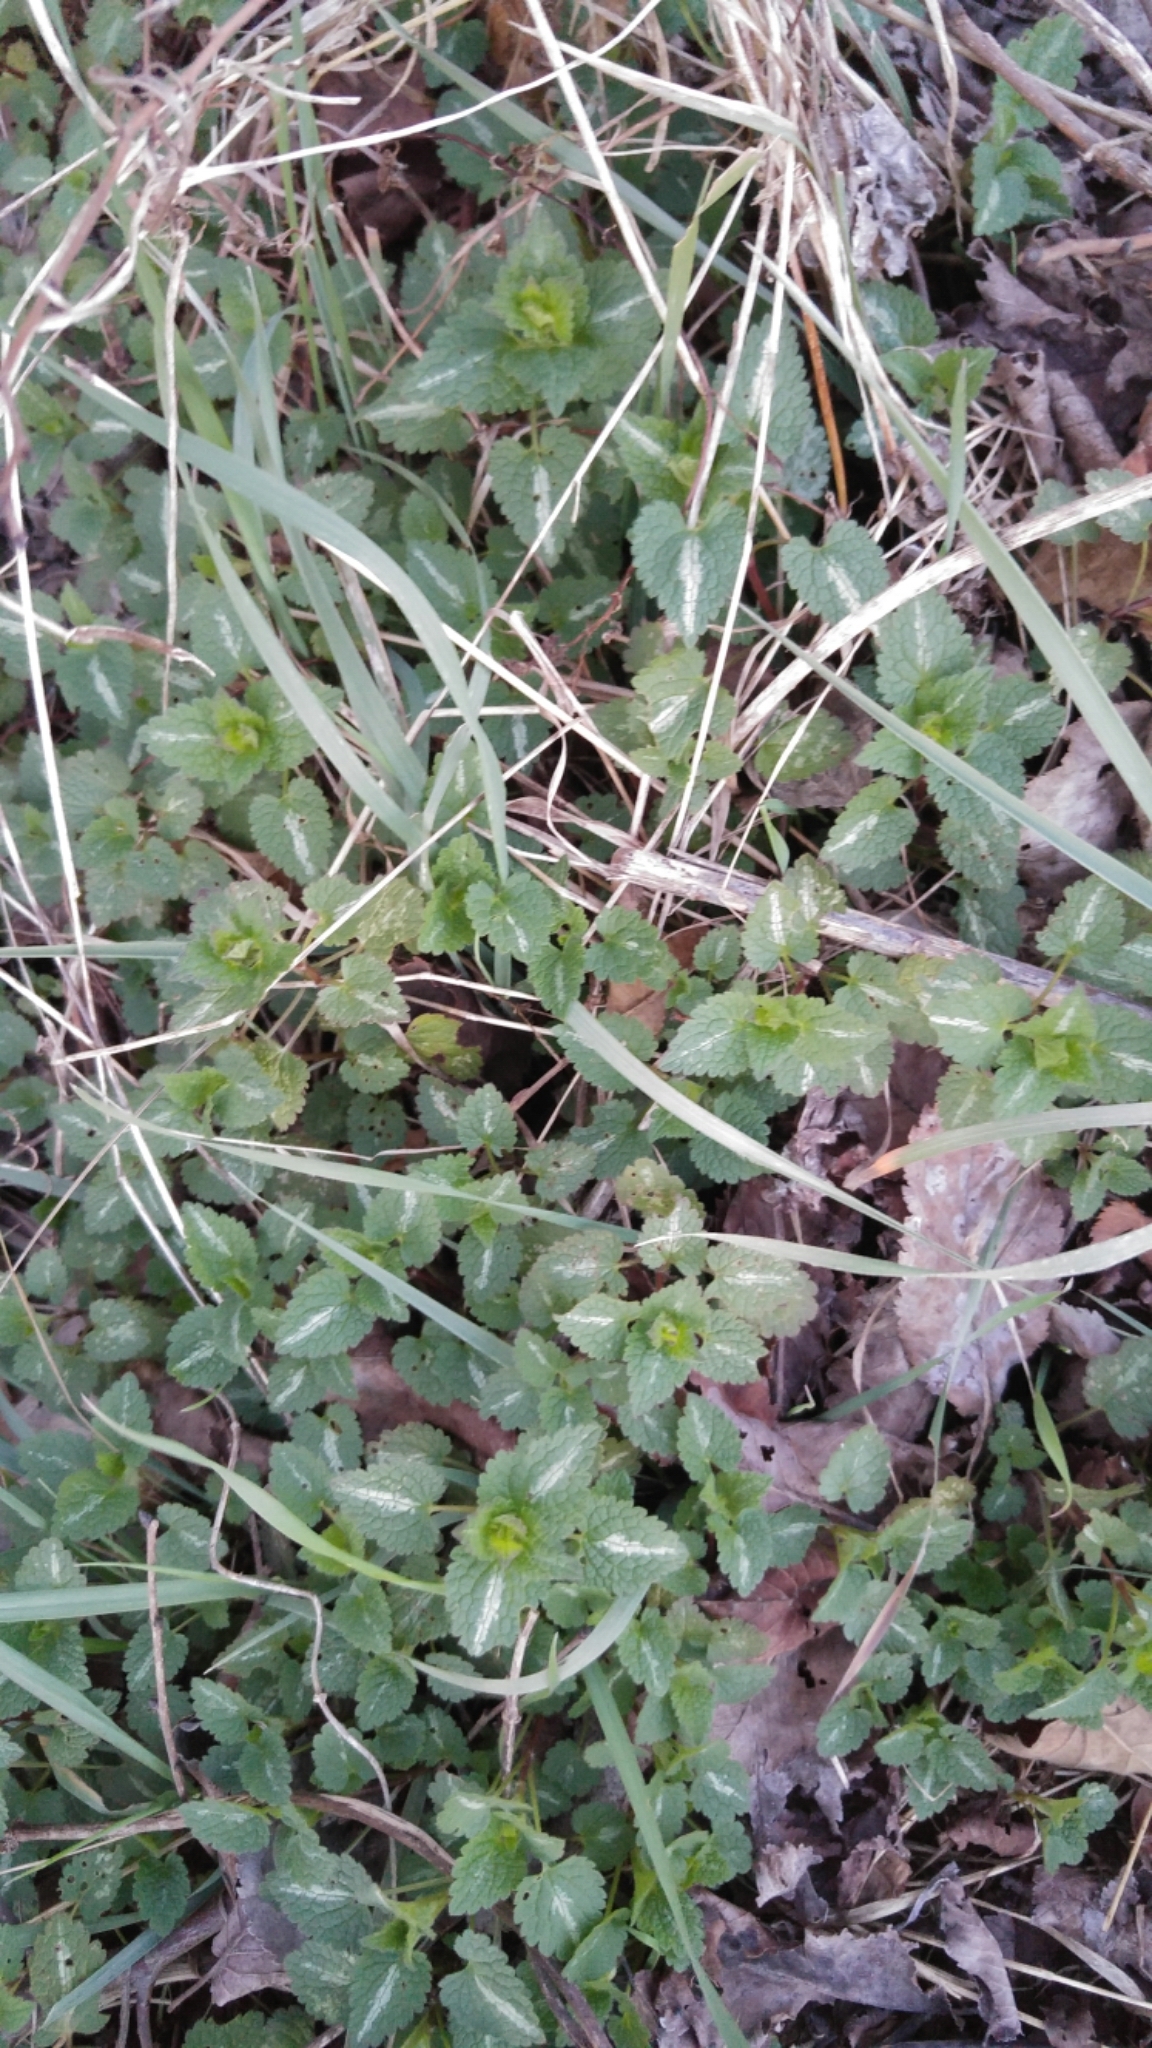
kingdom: Plantae
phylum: Tracheophyta
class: Magnoliopsida
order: Lamiales
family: Lamiaceae
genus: Lamium
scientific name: Lamium maculatum
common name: Spotted dead-nettle
